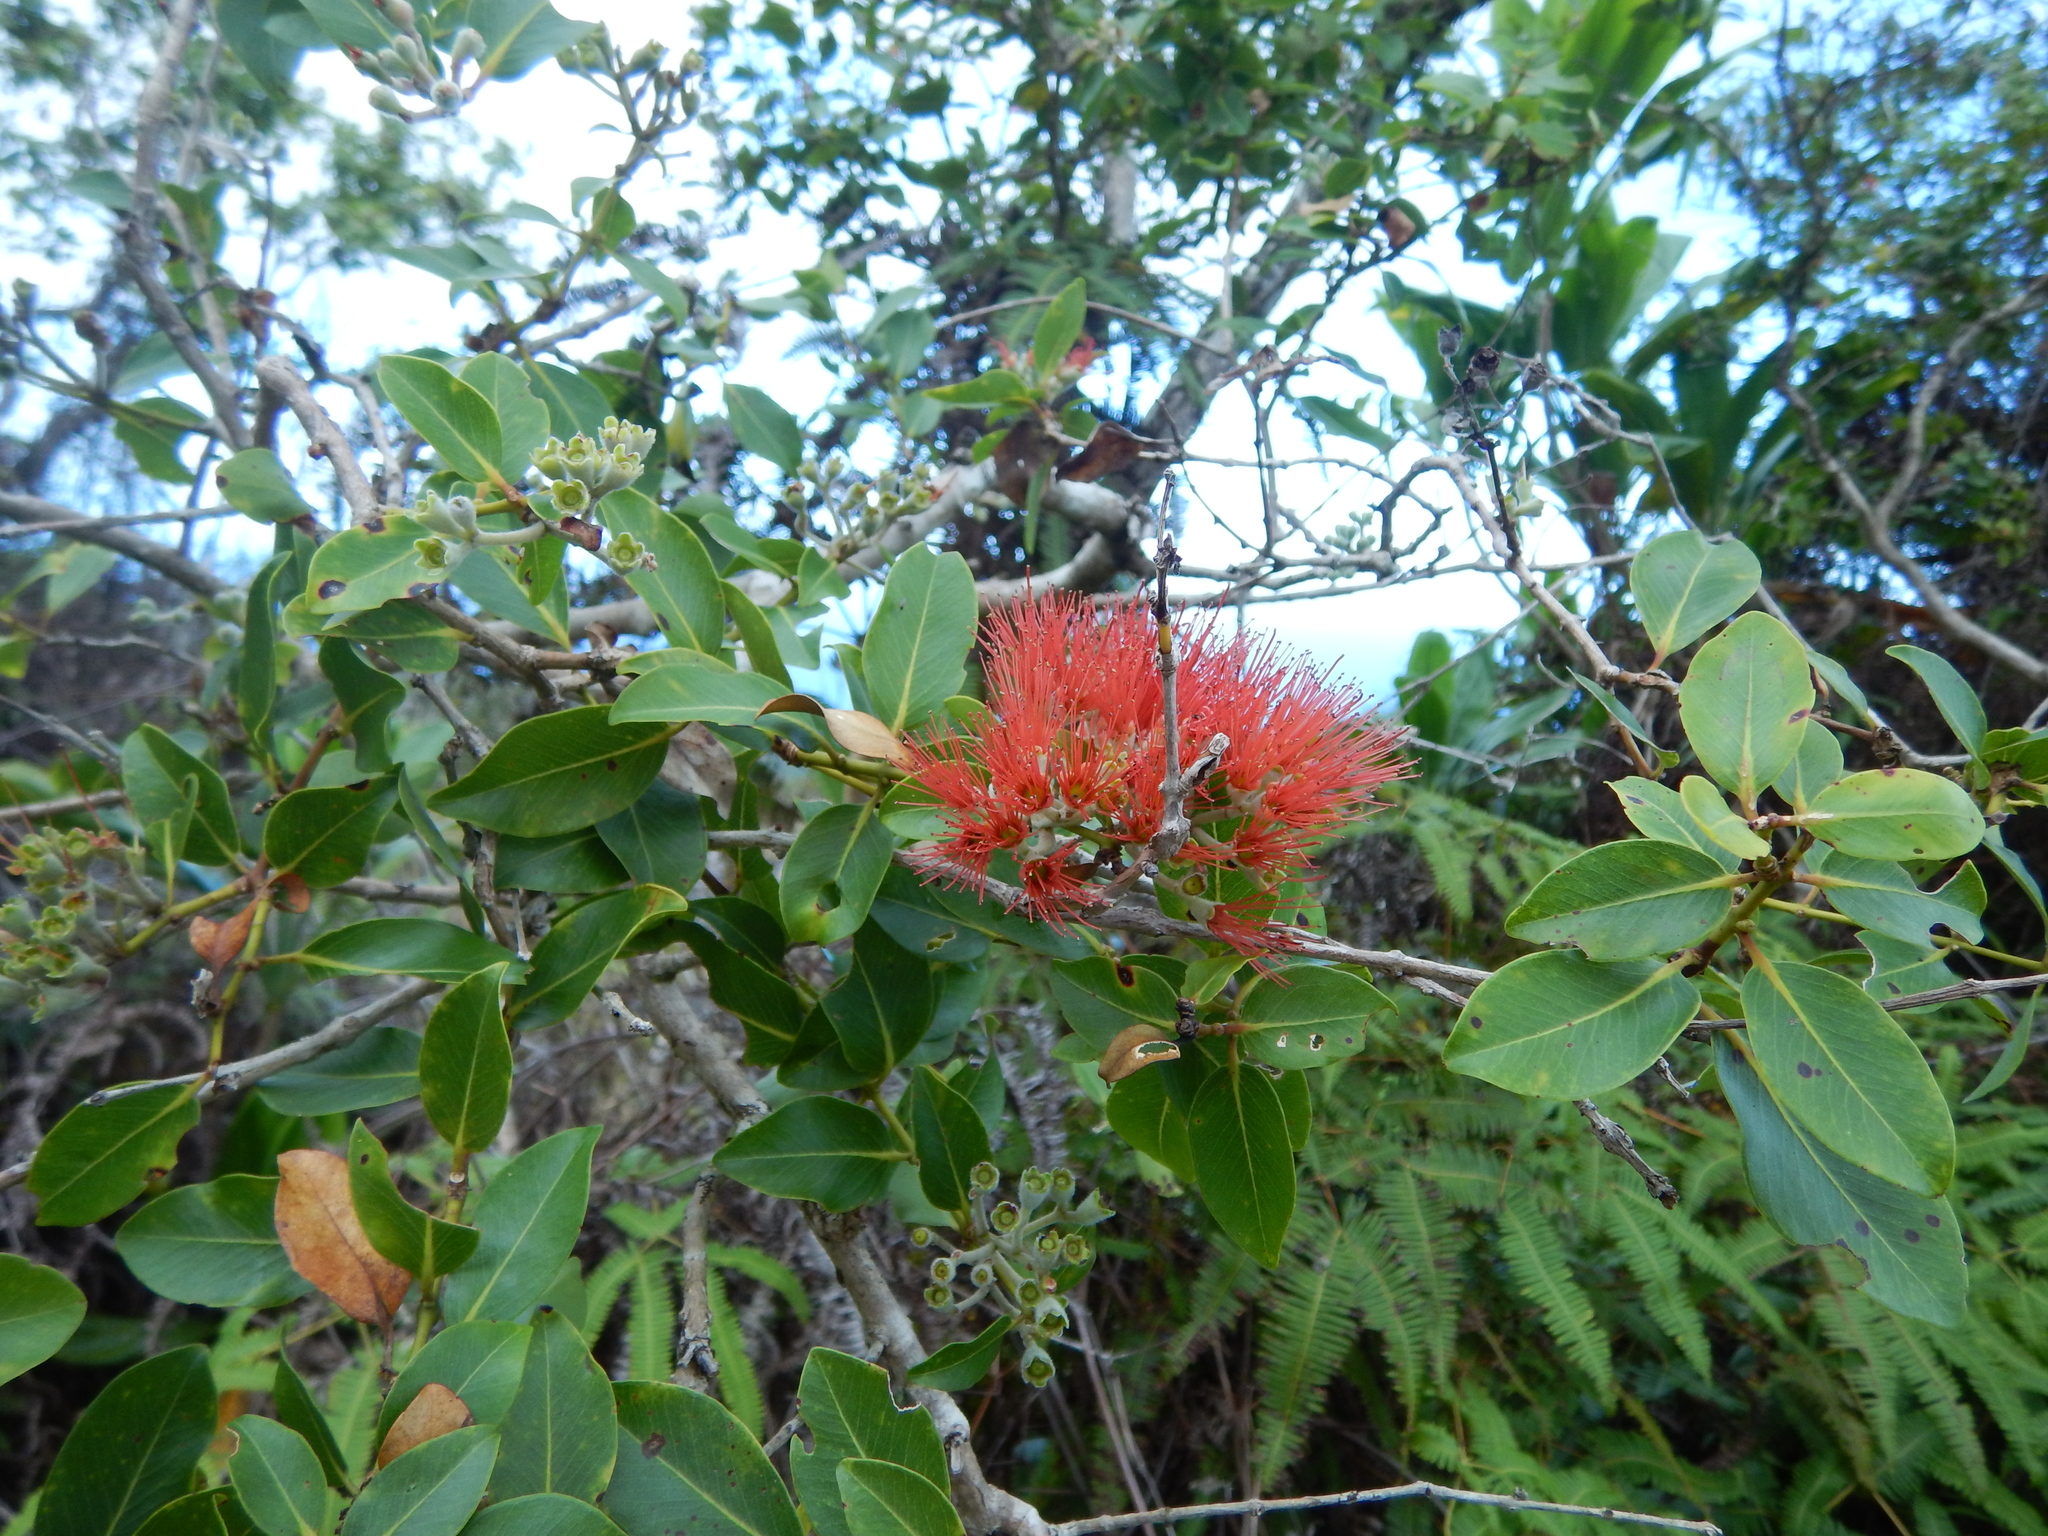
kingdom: Plantae
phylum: Tracheophyta
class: Magnoliopsida
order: Myrtales
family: Myrtaceae
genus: Metrosideros
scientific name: Metrosideros polymorpha
